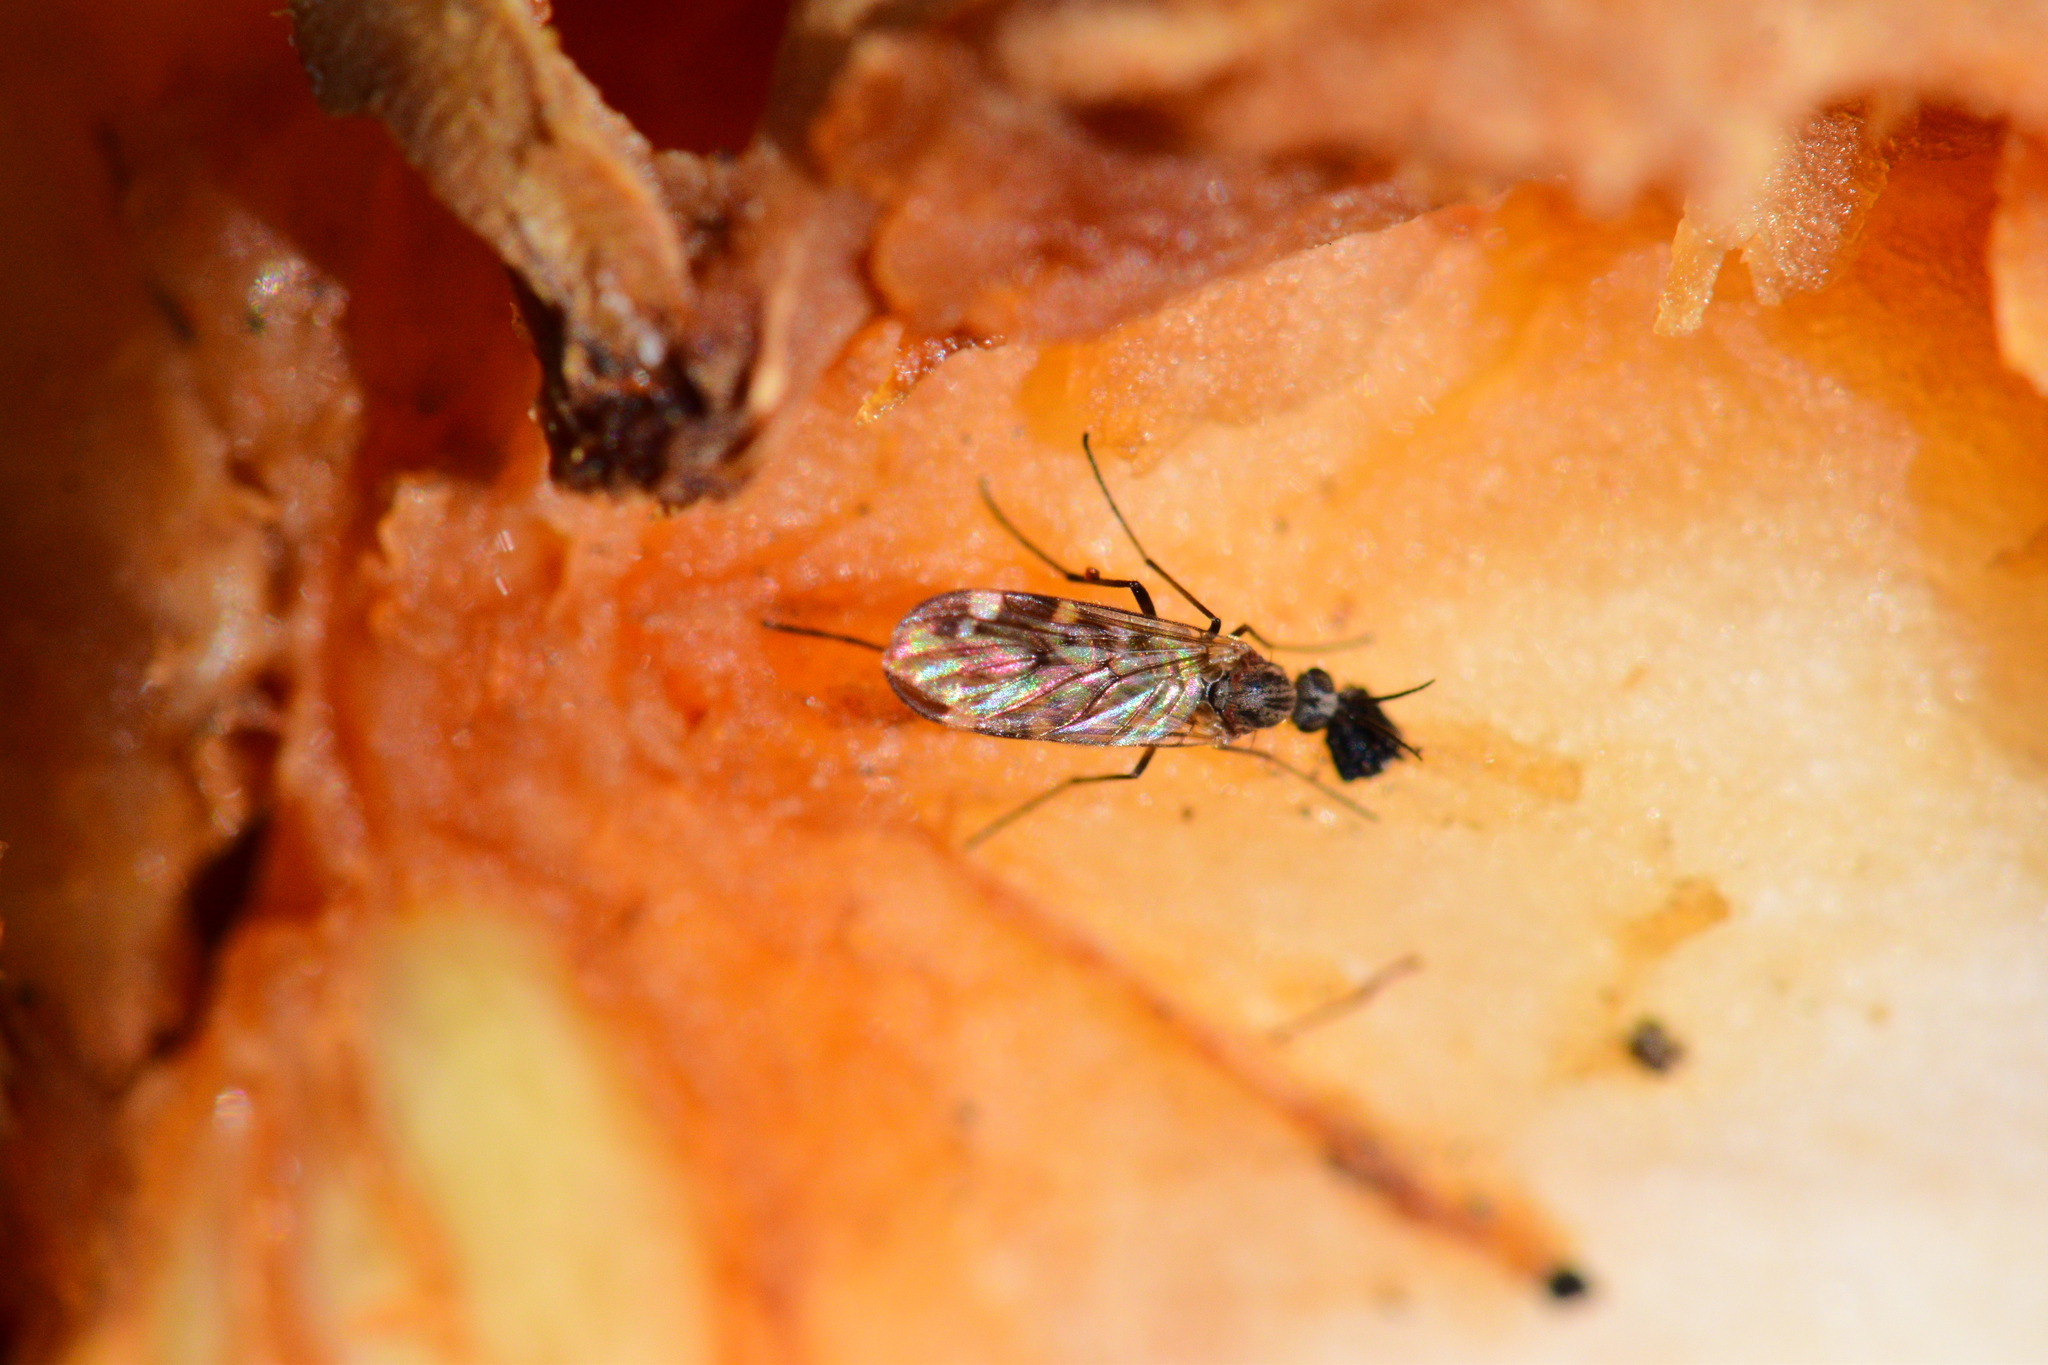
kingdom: Animalia
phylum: Arthropoda
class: Insecta
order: Diptera
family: Anisopodidae
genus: Sylvicola
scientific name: Sylvicola alternata
